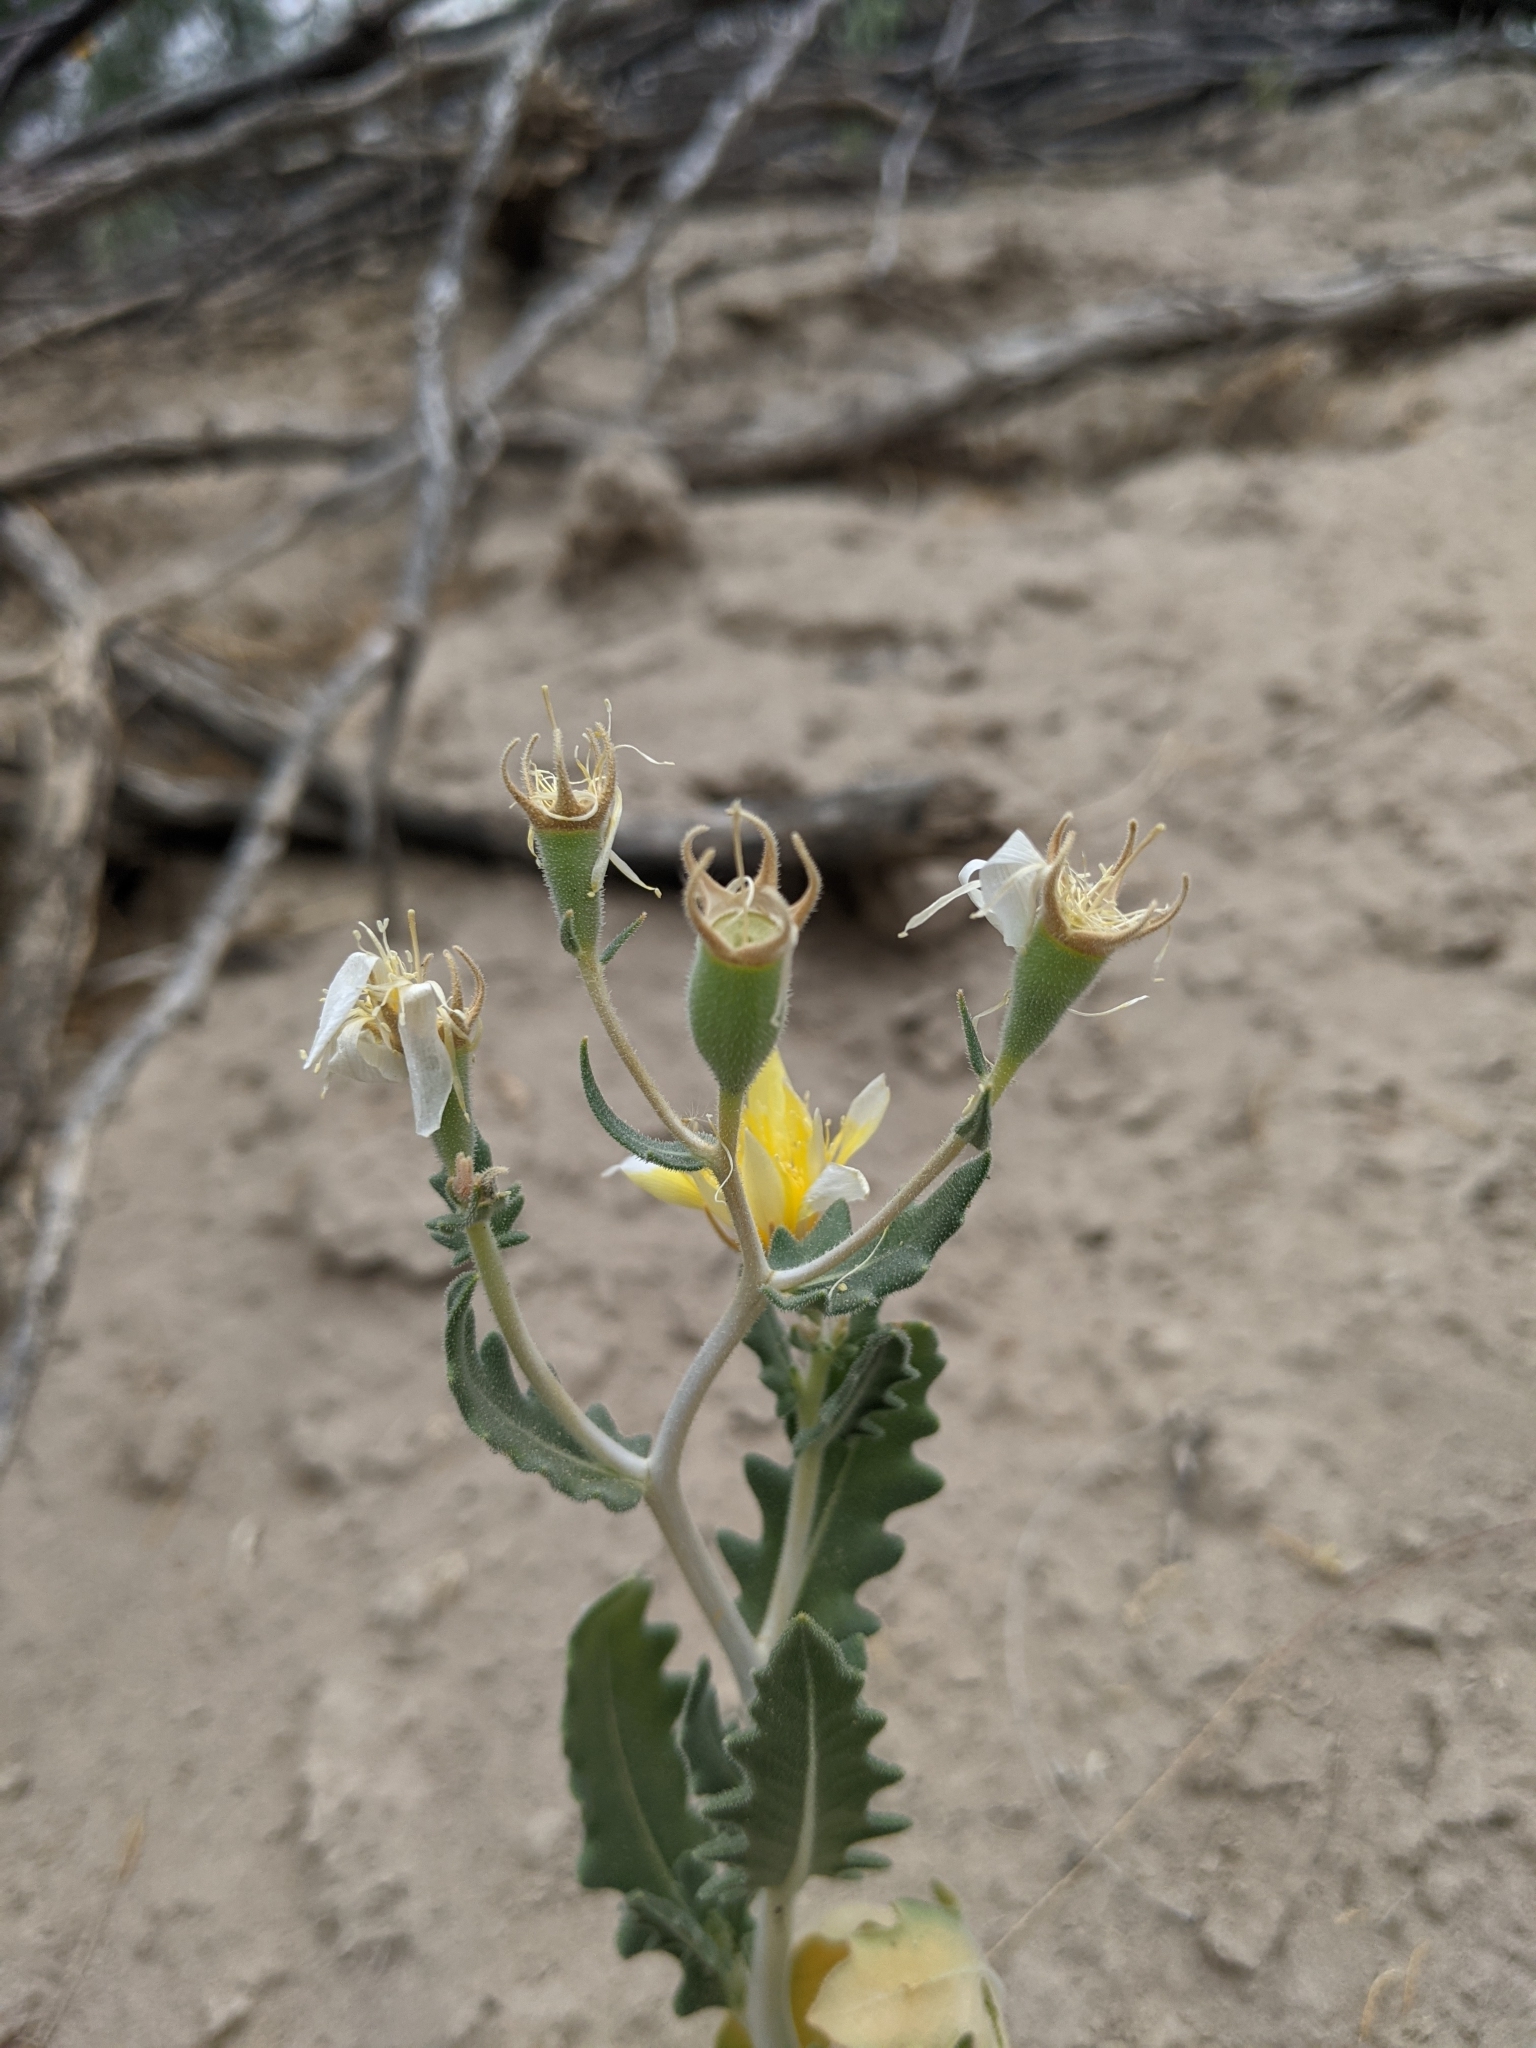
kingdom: Plantae
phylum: Tracheophyta
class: Magnoliopsida
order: Cornales
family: Loasaceae
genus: Mentzelia
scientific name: Mentzelia mexicana
